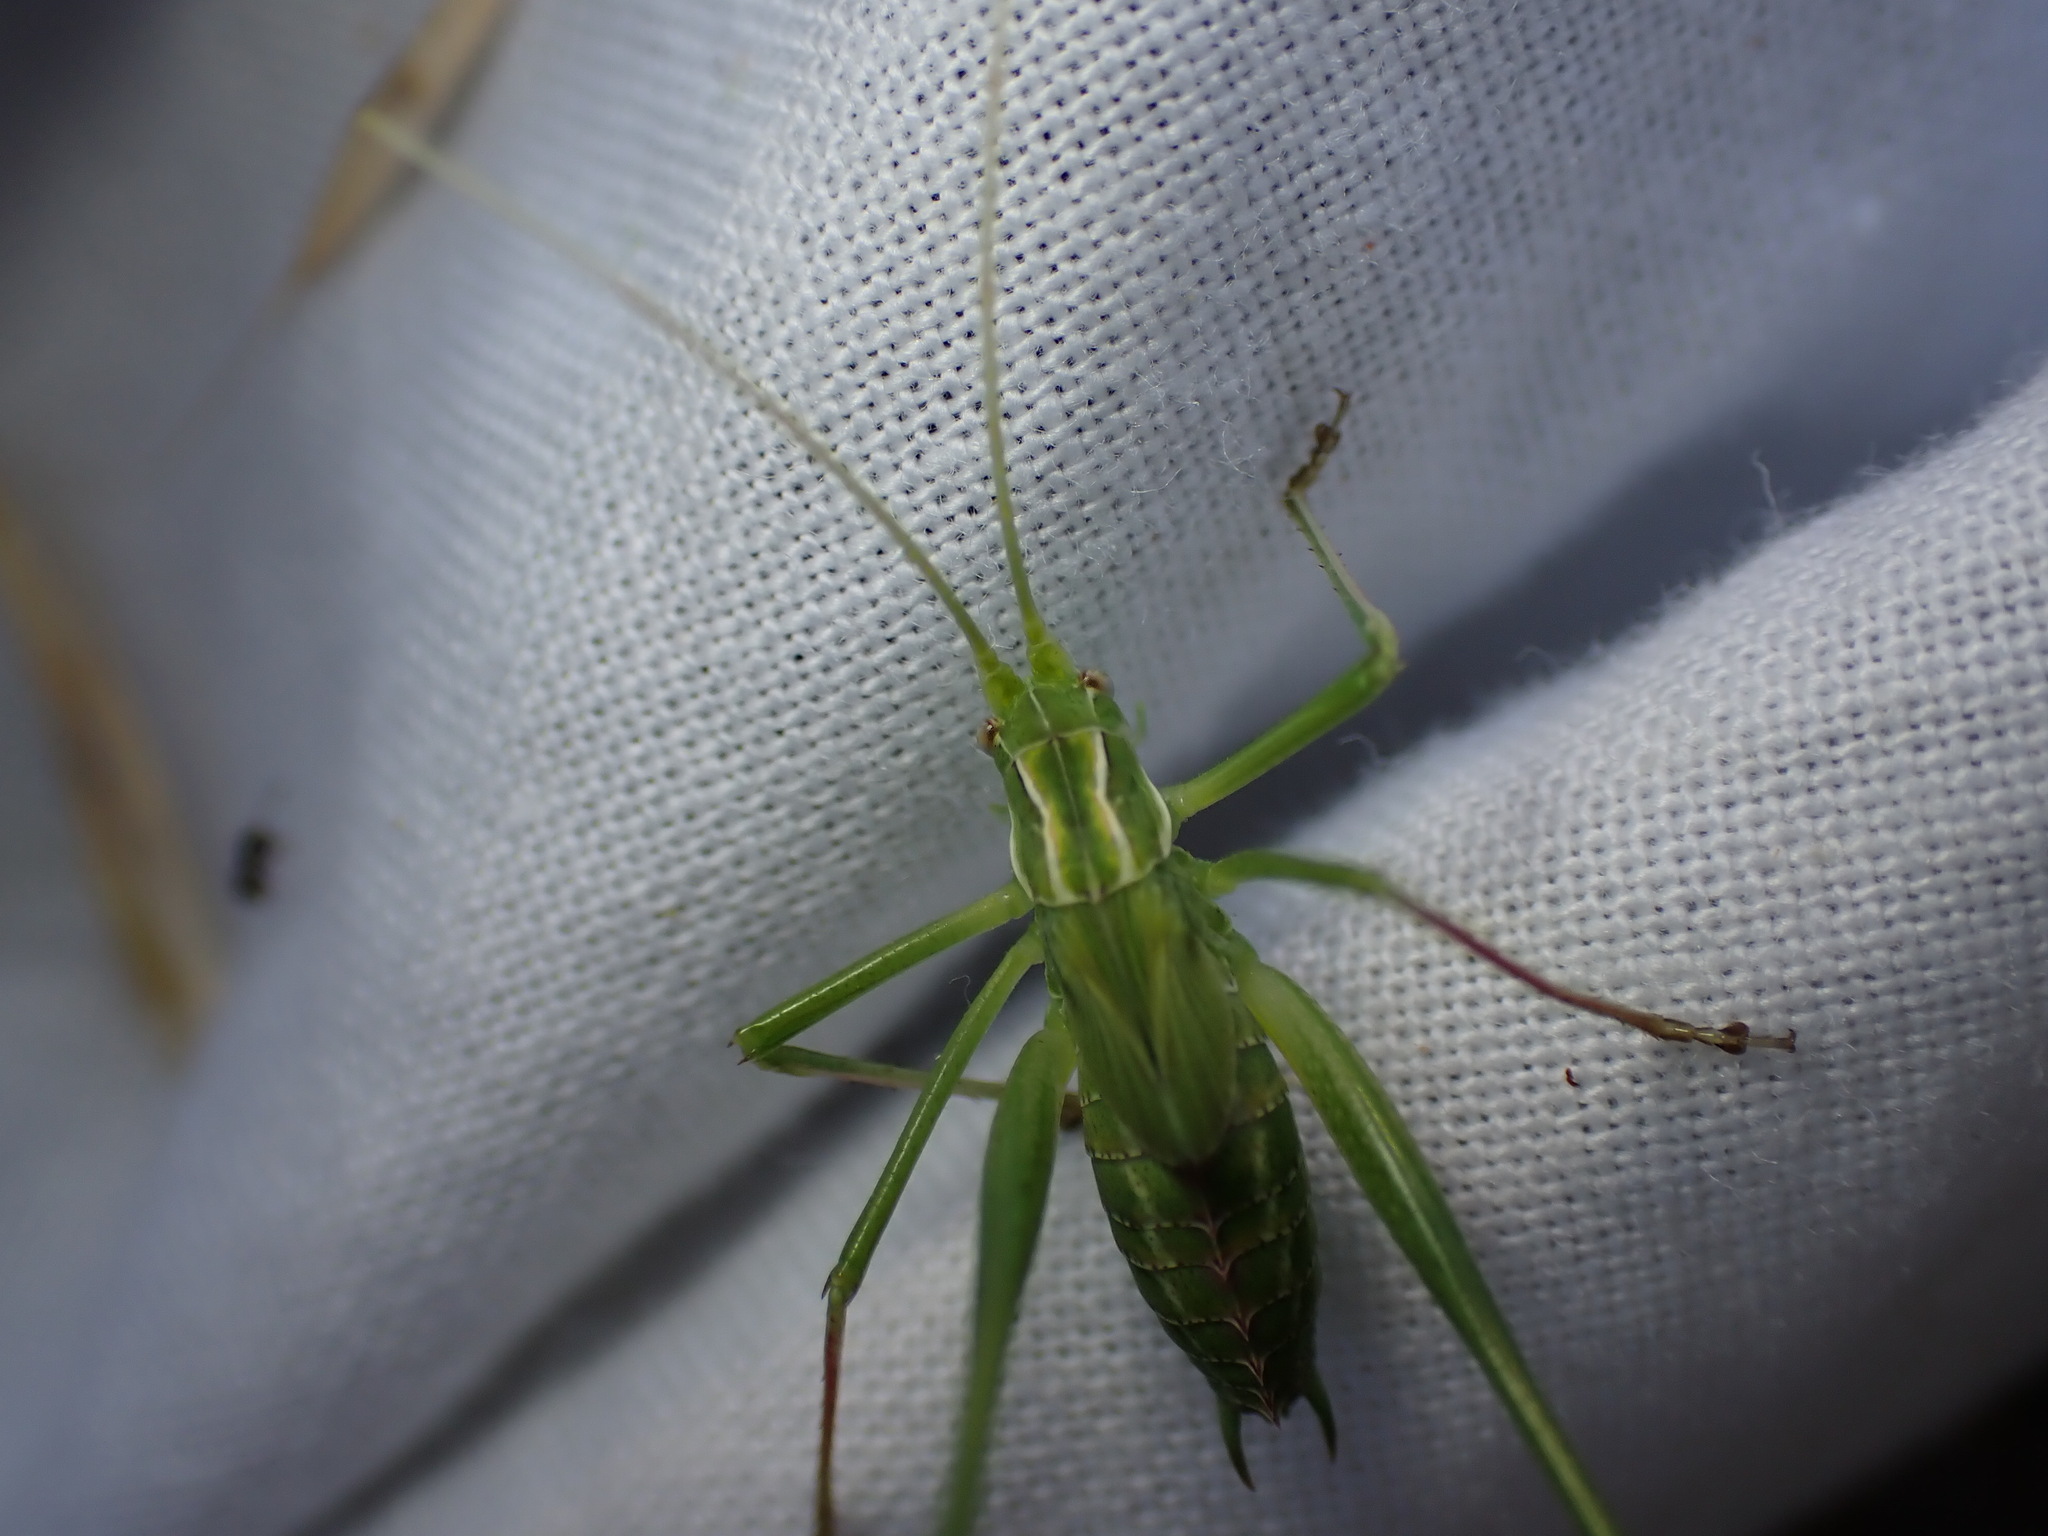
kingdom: Animalia
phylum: Arthropoda
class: Insecta
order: Orthoptera
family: Tettigoniidae
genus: Tylopsis
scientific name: Tylopsis lilifolia
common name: Lily bush-cricket
